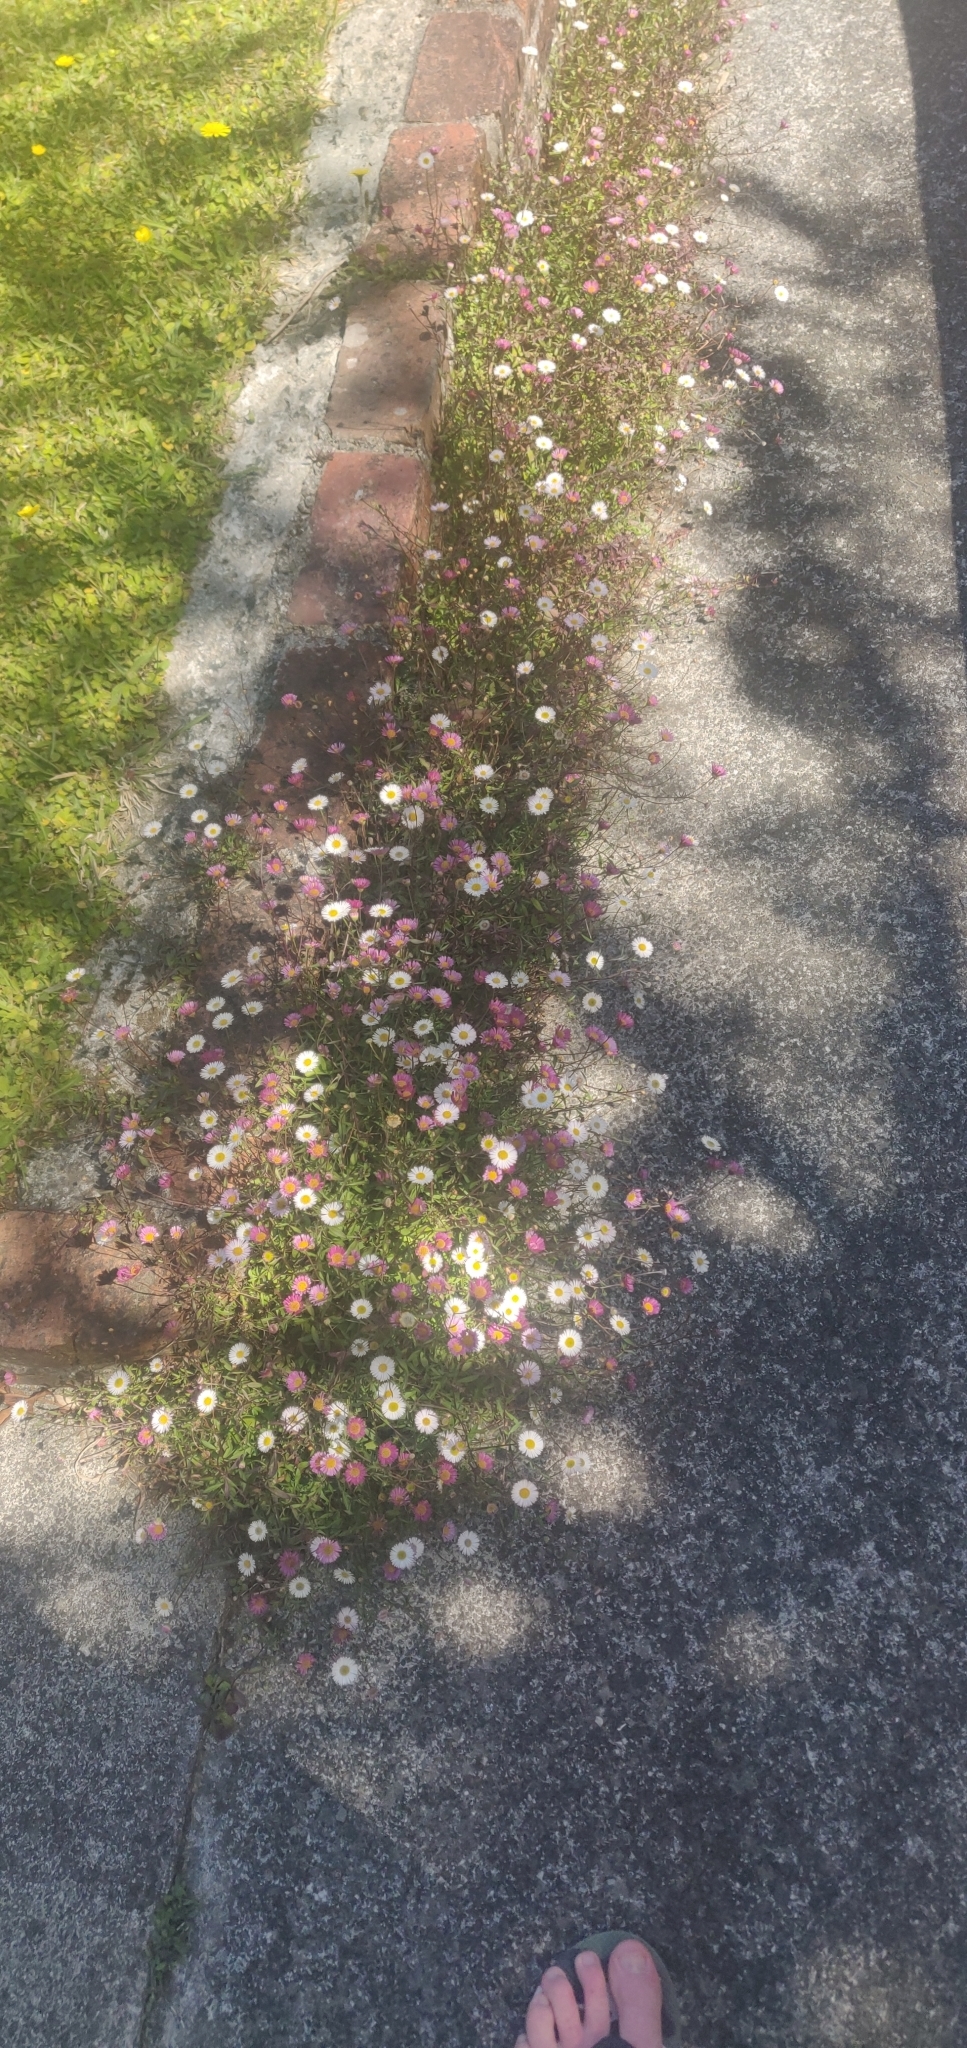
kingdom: Plantae
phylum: Tracheophyta
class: Magnoliopsida
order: Asterales
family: Asteraceae
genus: Erigeron
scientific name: Erigeron karvinskianus
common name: Mexican fleabane
